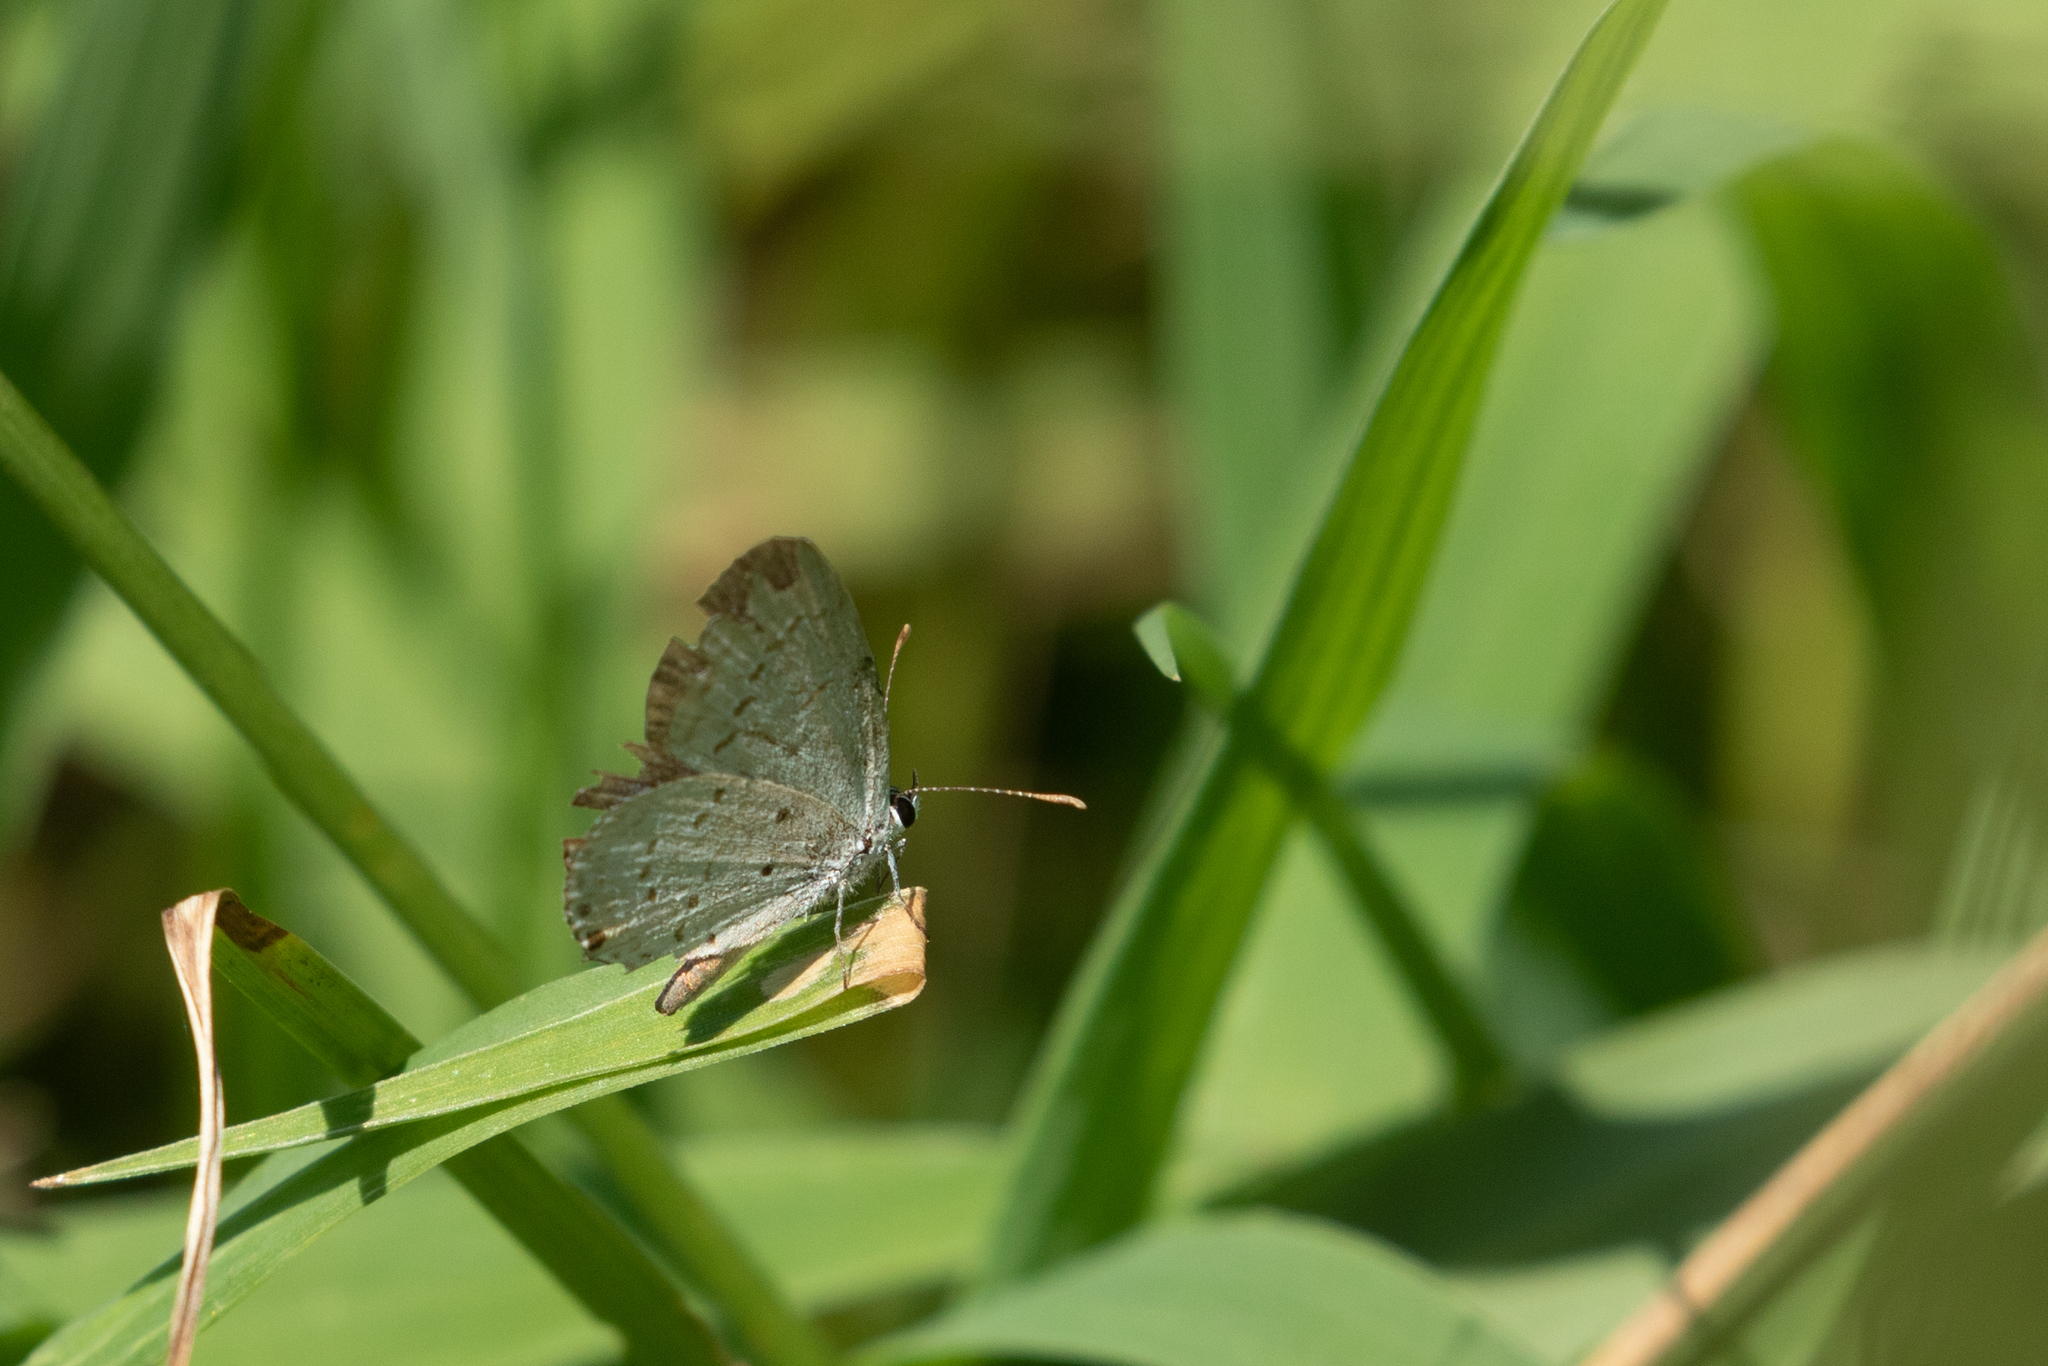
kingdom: Animalia
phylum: Arthropoda
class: Insecta
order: Lepidoptera
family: Lycaenidae
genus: Elkalyce
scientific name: Elkalyce comyntas
